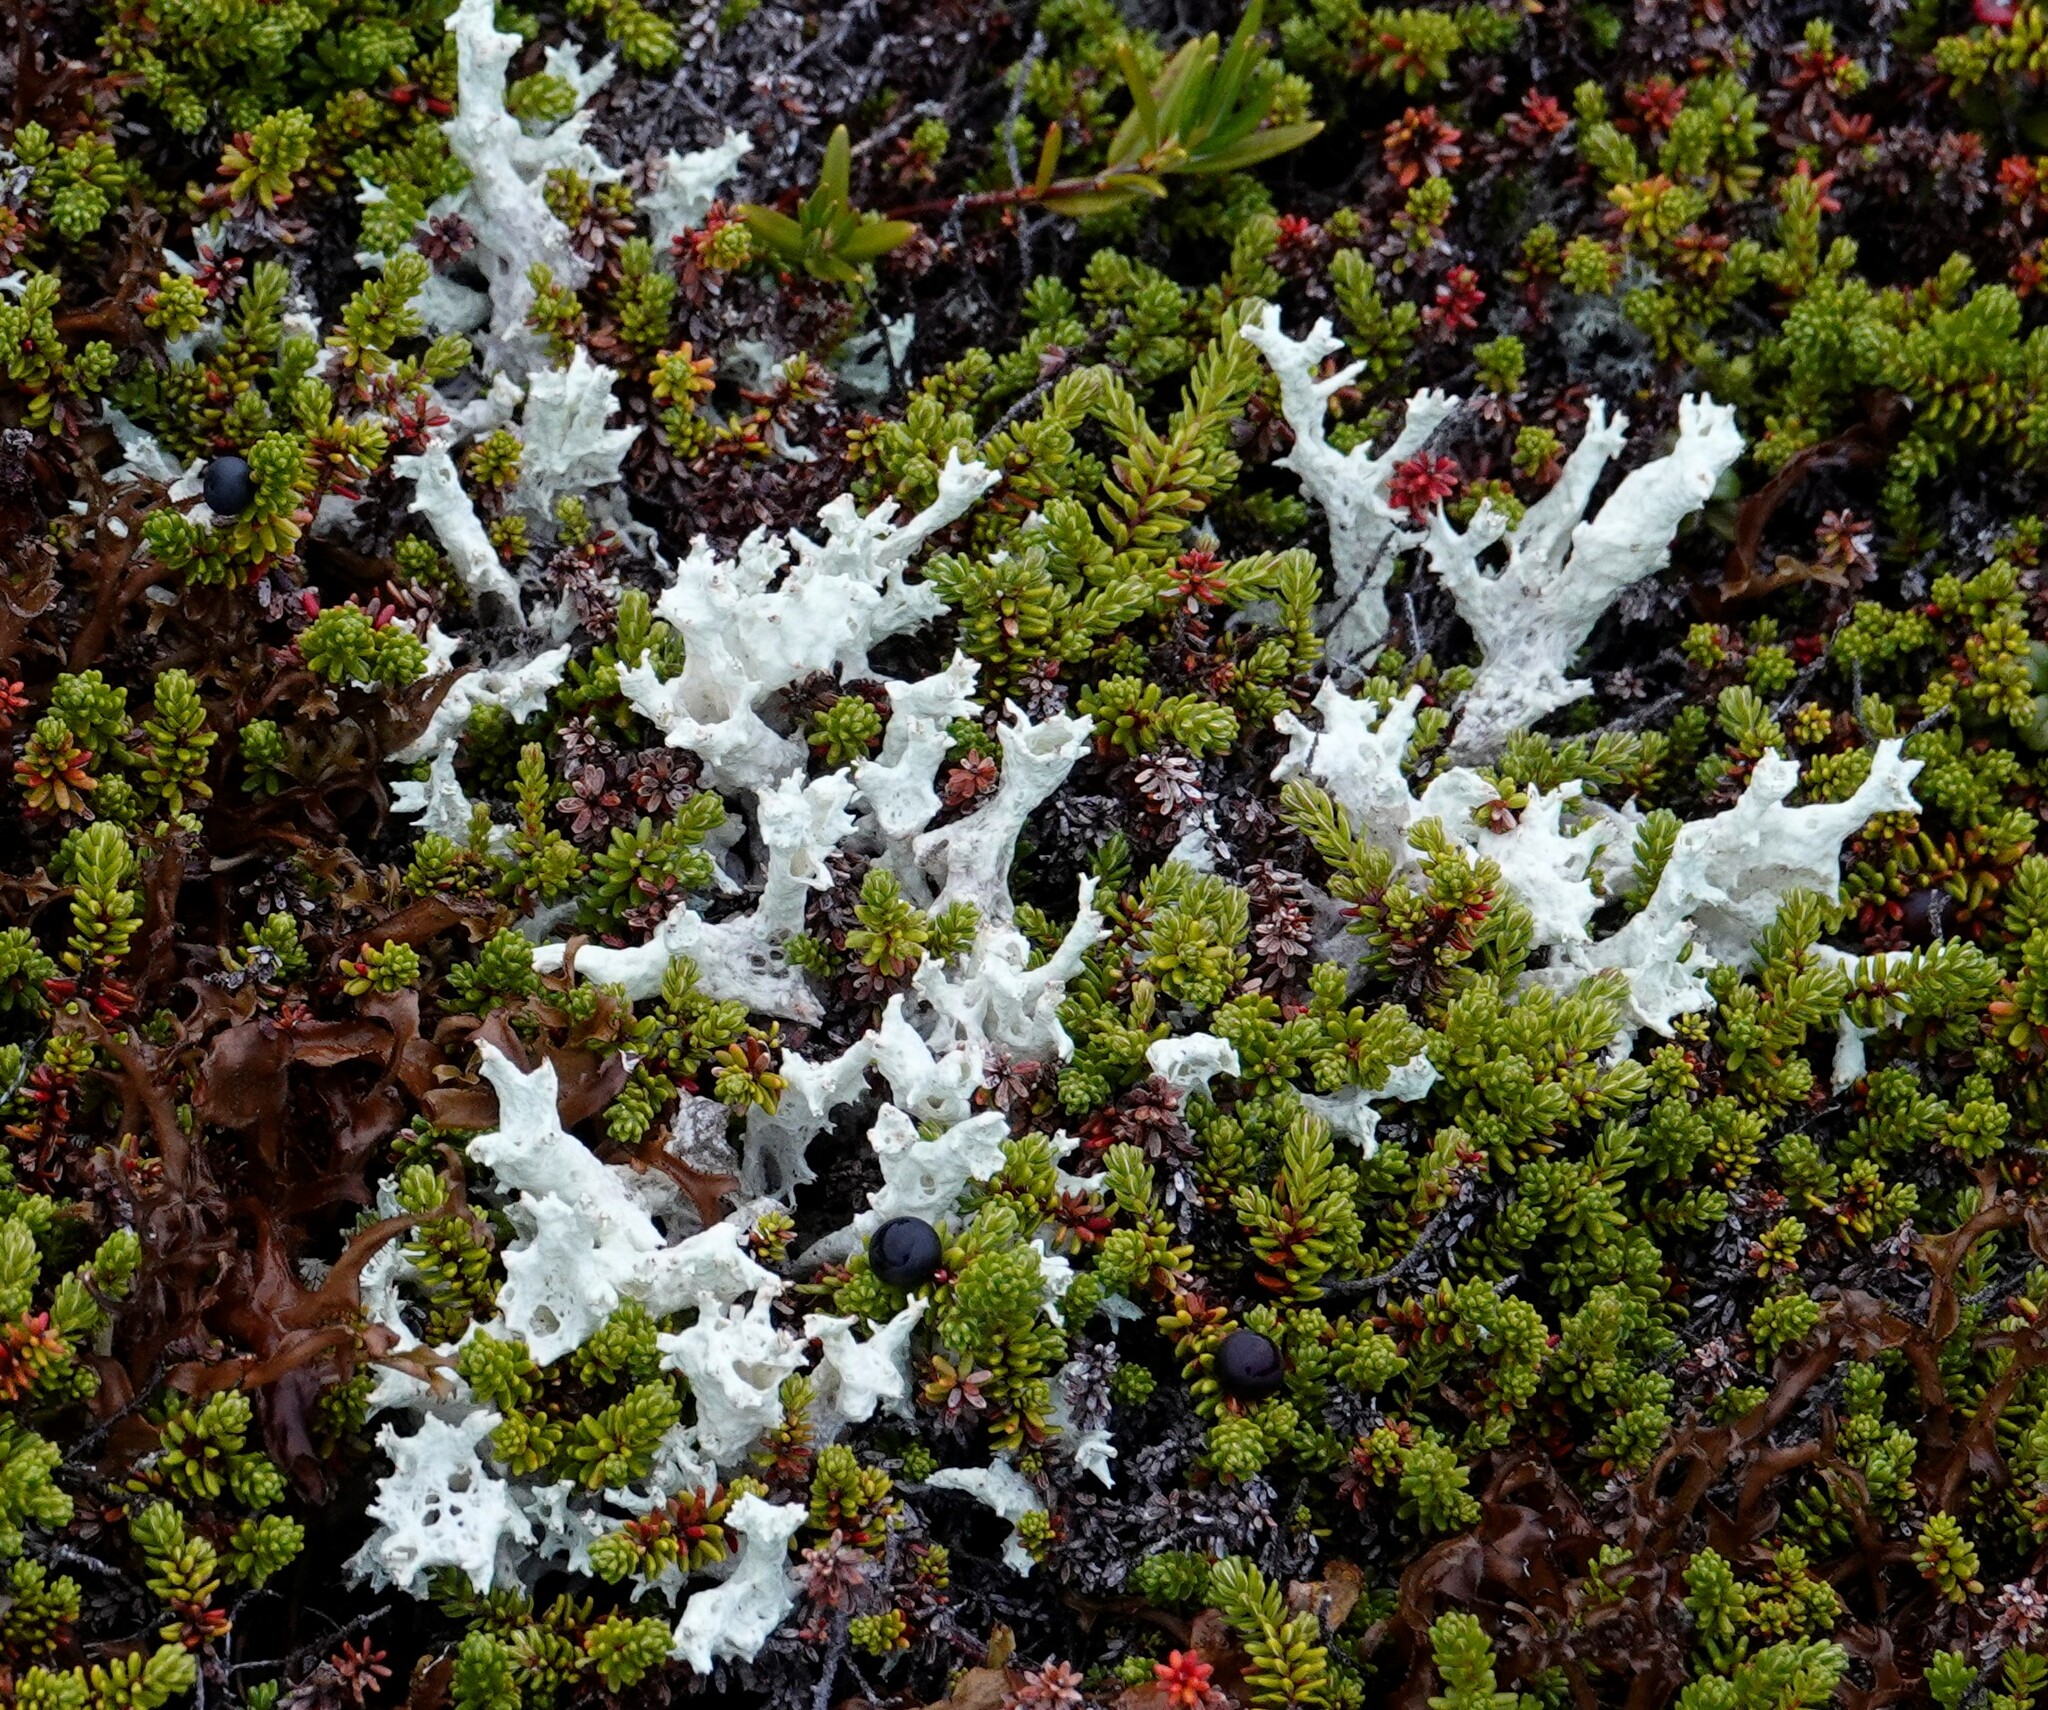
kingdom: Fungi
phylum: Ascomycota
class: Lecanoromycetes
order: Lecanorales
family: Cladoniaceae
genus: Cladonia
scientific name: Cladonia boryi
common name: Fishnet cladonia
